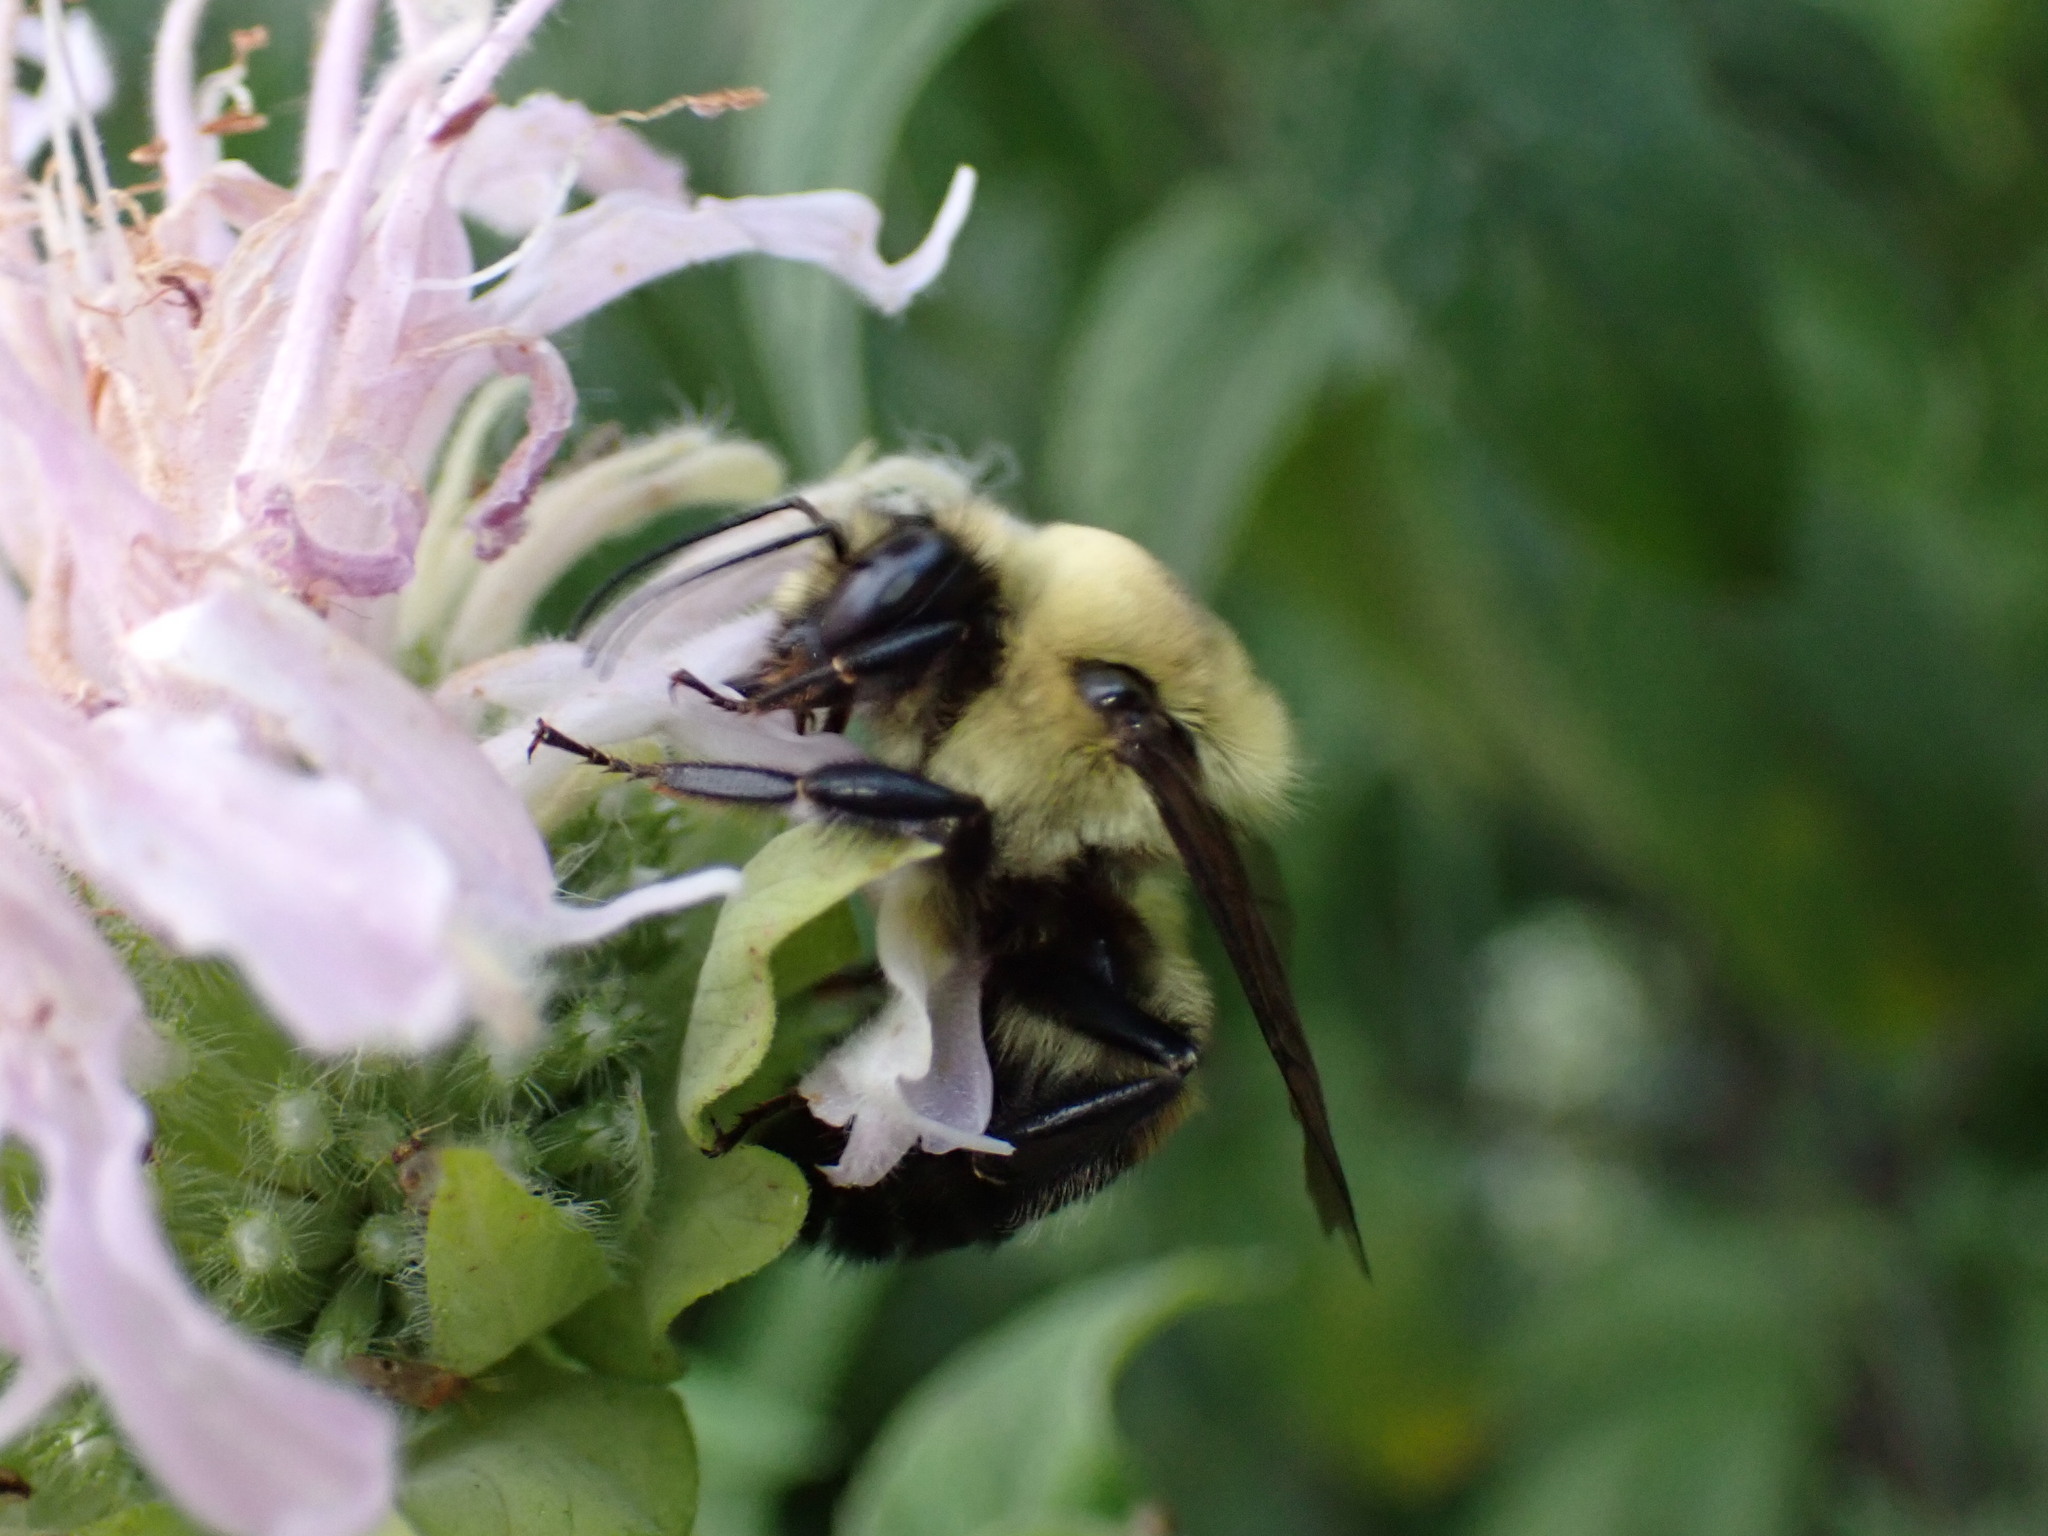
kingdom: Animalia
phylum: Arthropoda
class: Insecta
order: Hymenoptera
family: Apidae
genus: Bombus
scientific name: Bombus griseocollis
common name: Brown-belted bumble bee
